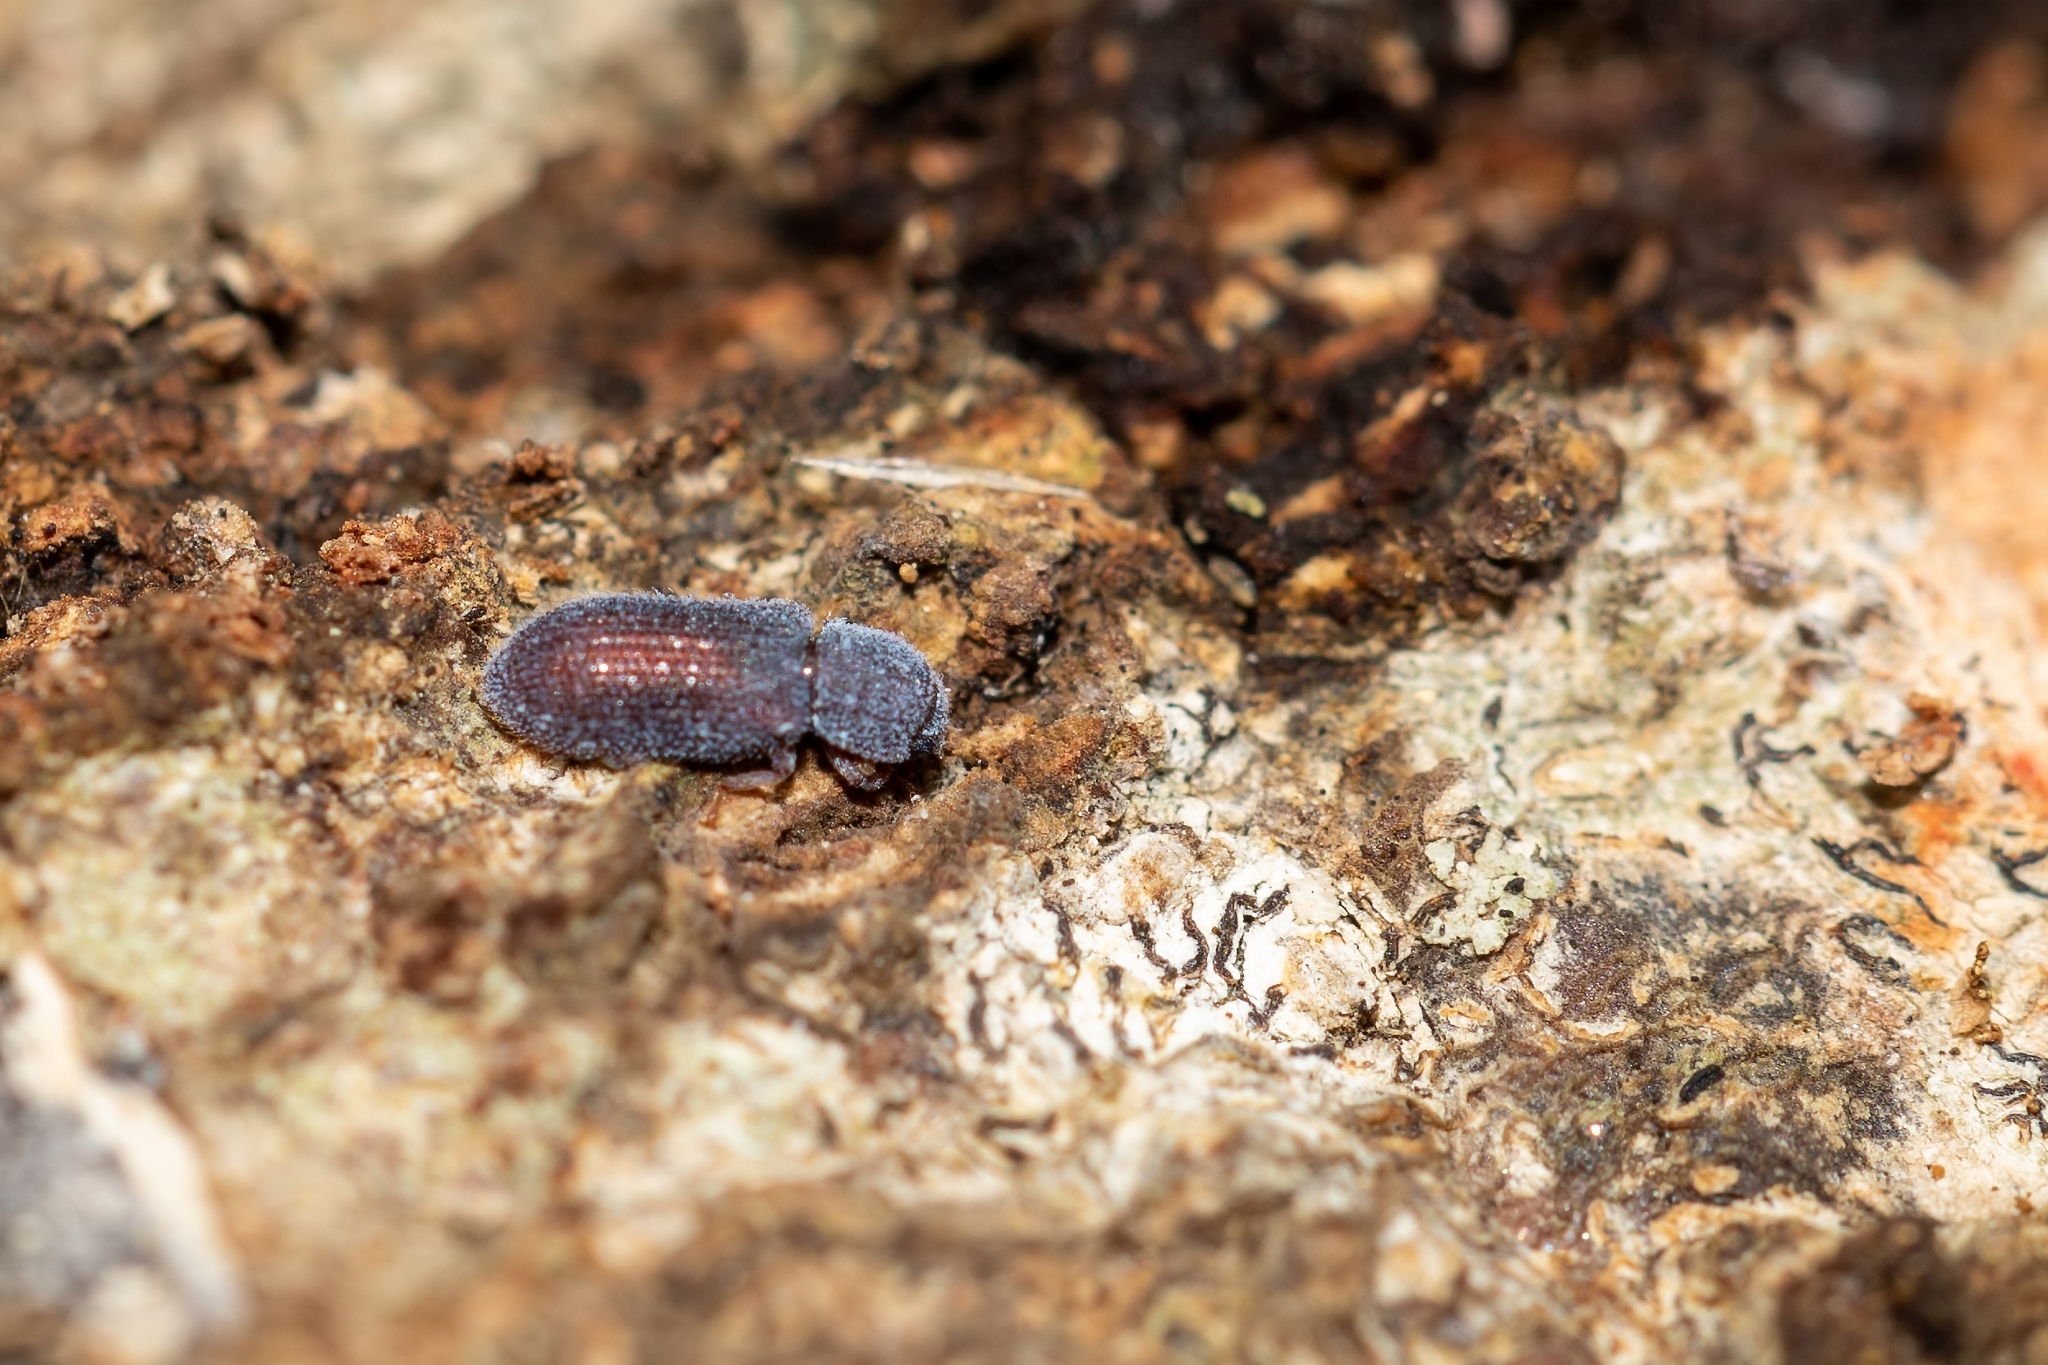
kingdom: Animalia
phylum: Arthropoda
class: Insecta
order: Coleoptera
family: Zopheridae
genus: Endeitoma
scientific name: Endeitoma granulata
